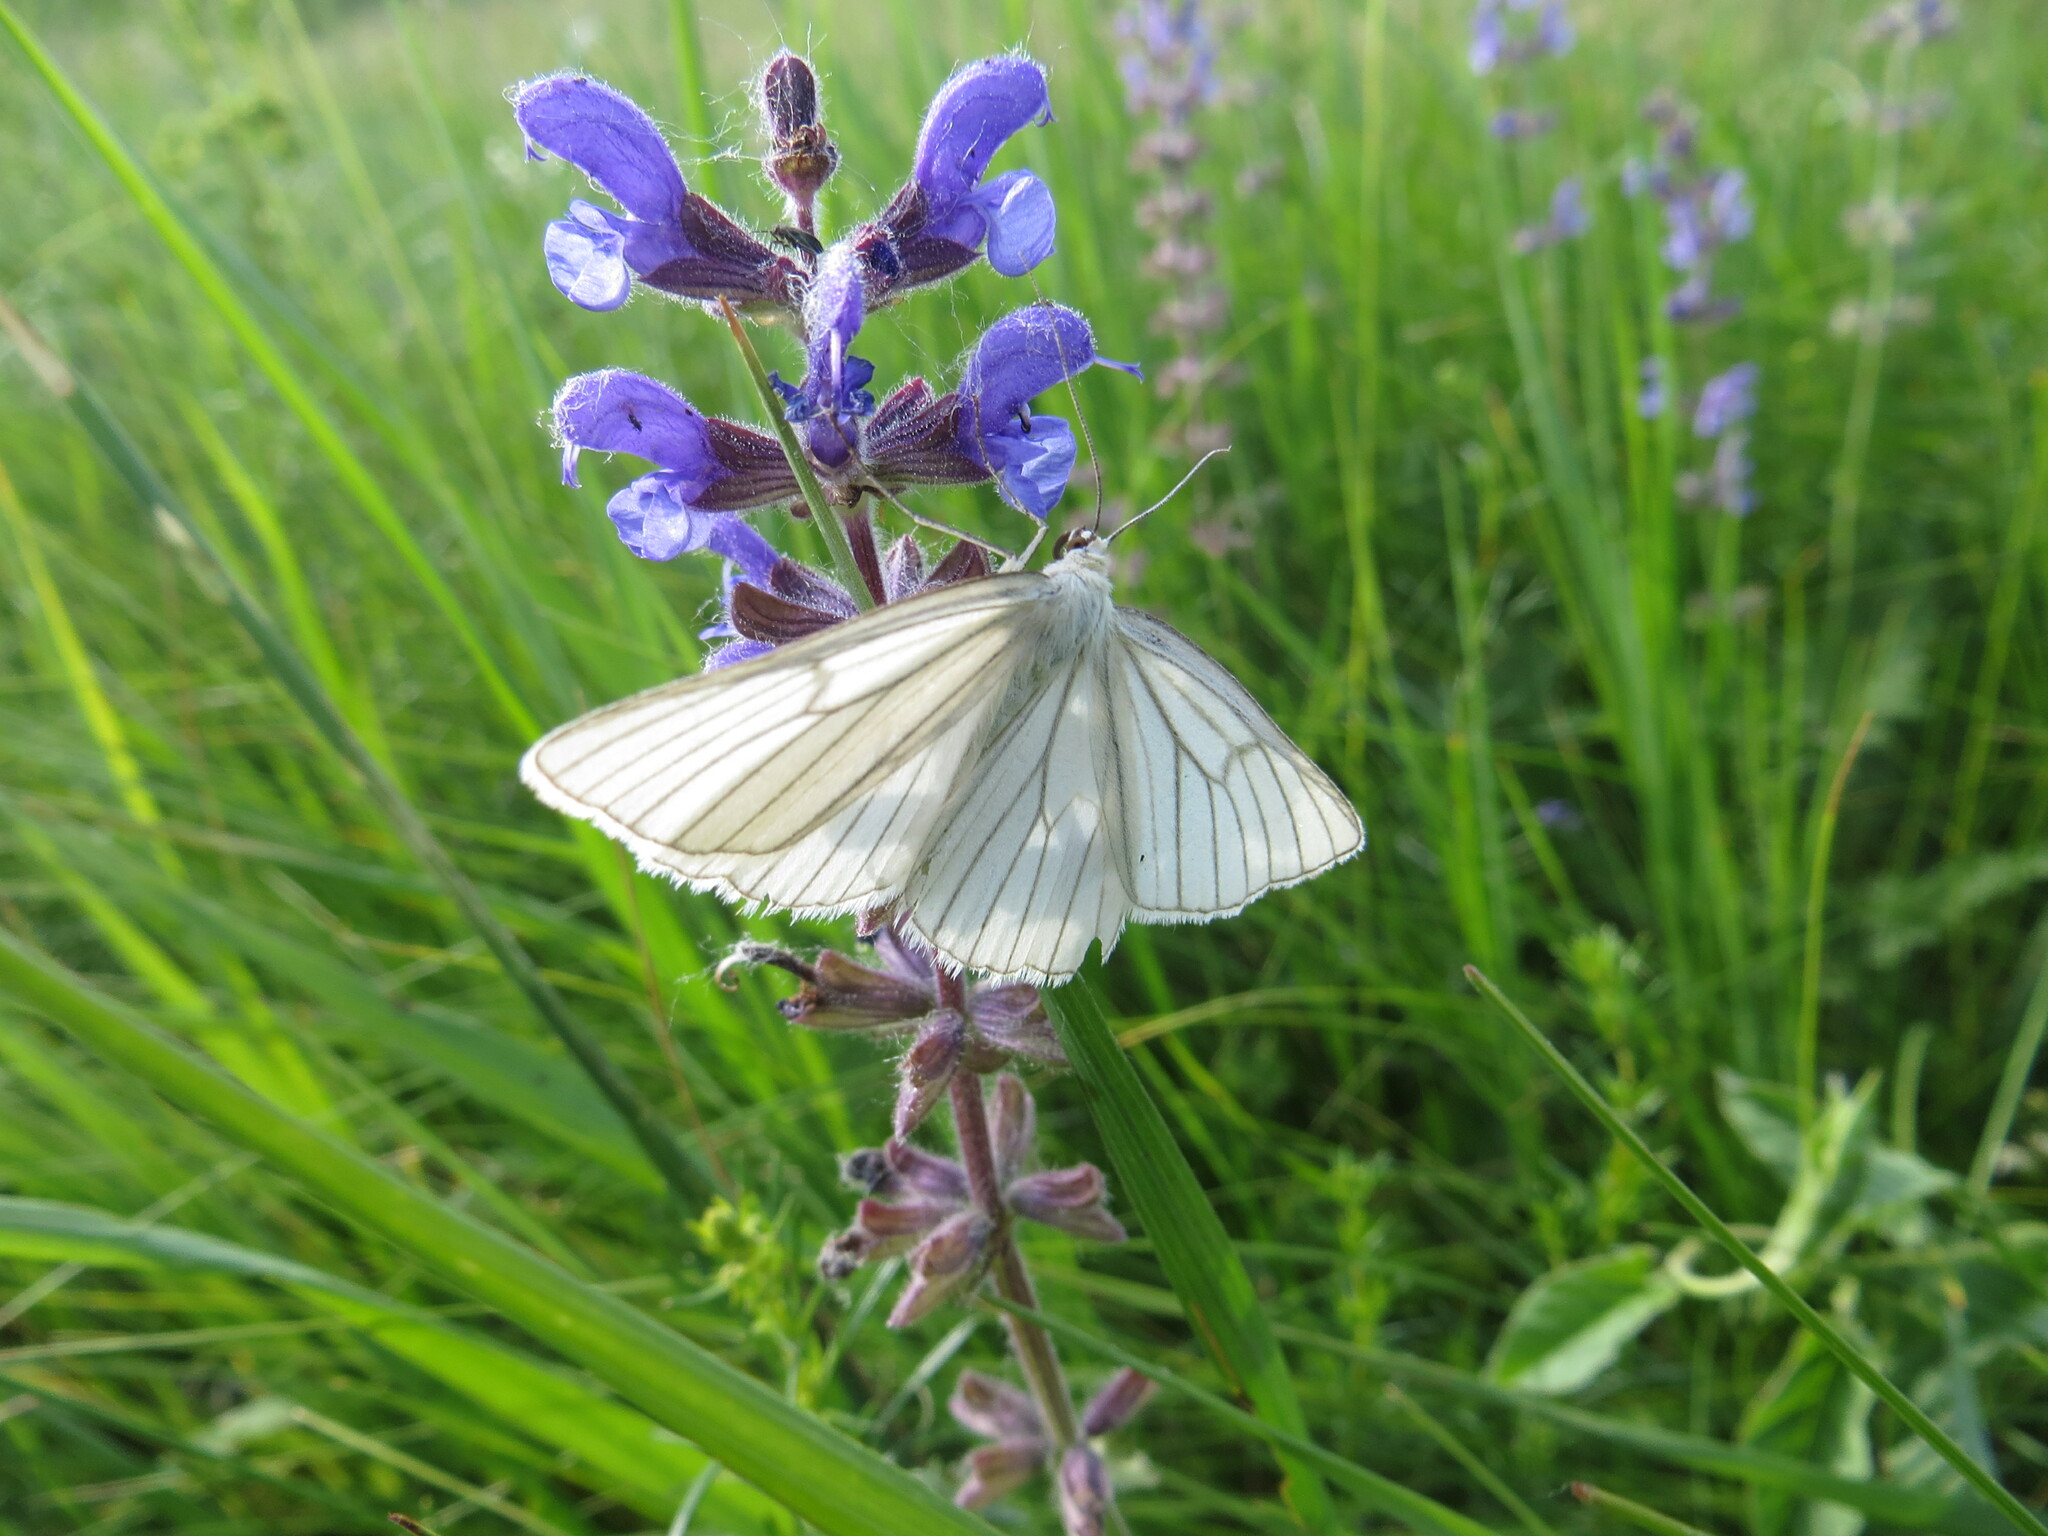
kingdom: Animalia
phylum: Arthropoda
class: Insecta
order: Lepidoptera
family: Geometridae
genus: Siona
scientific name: Siona lineata
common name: Black-veined moth
